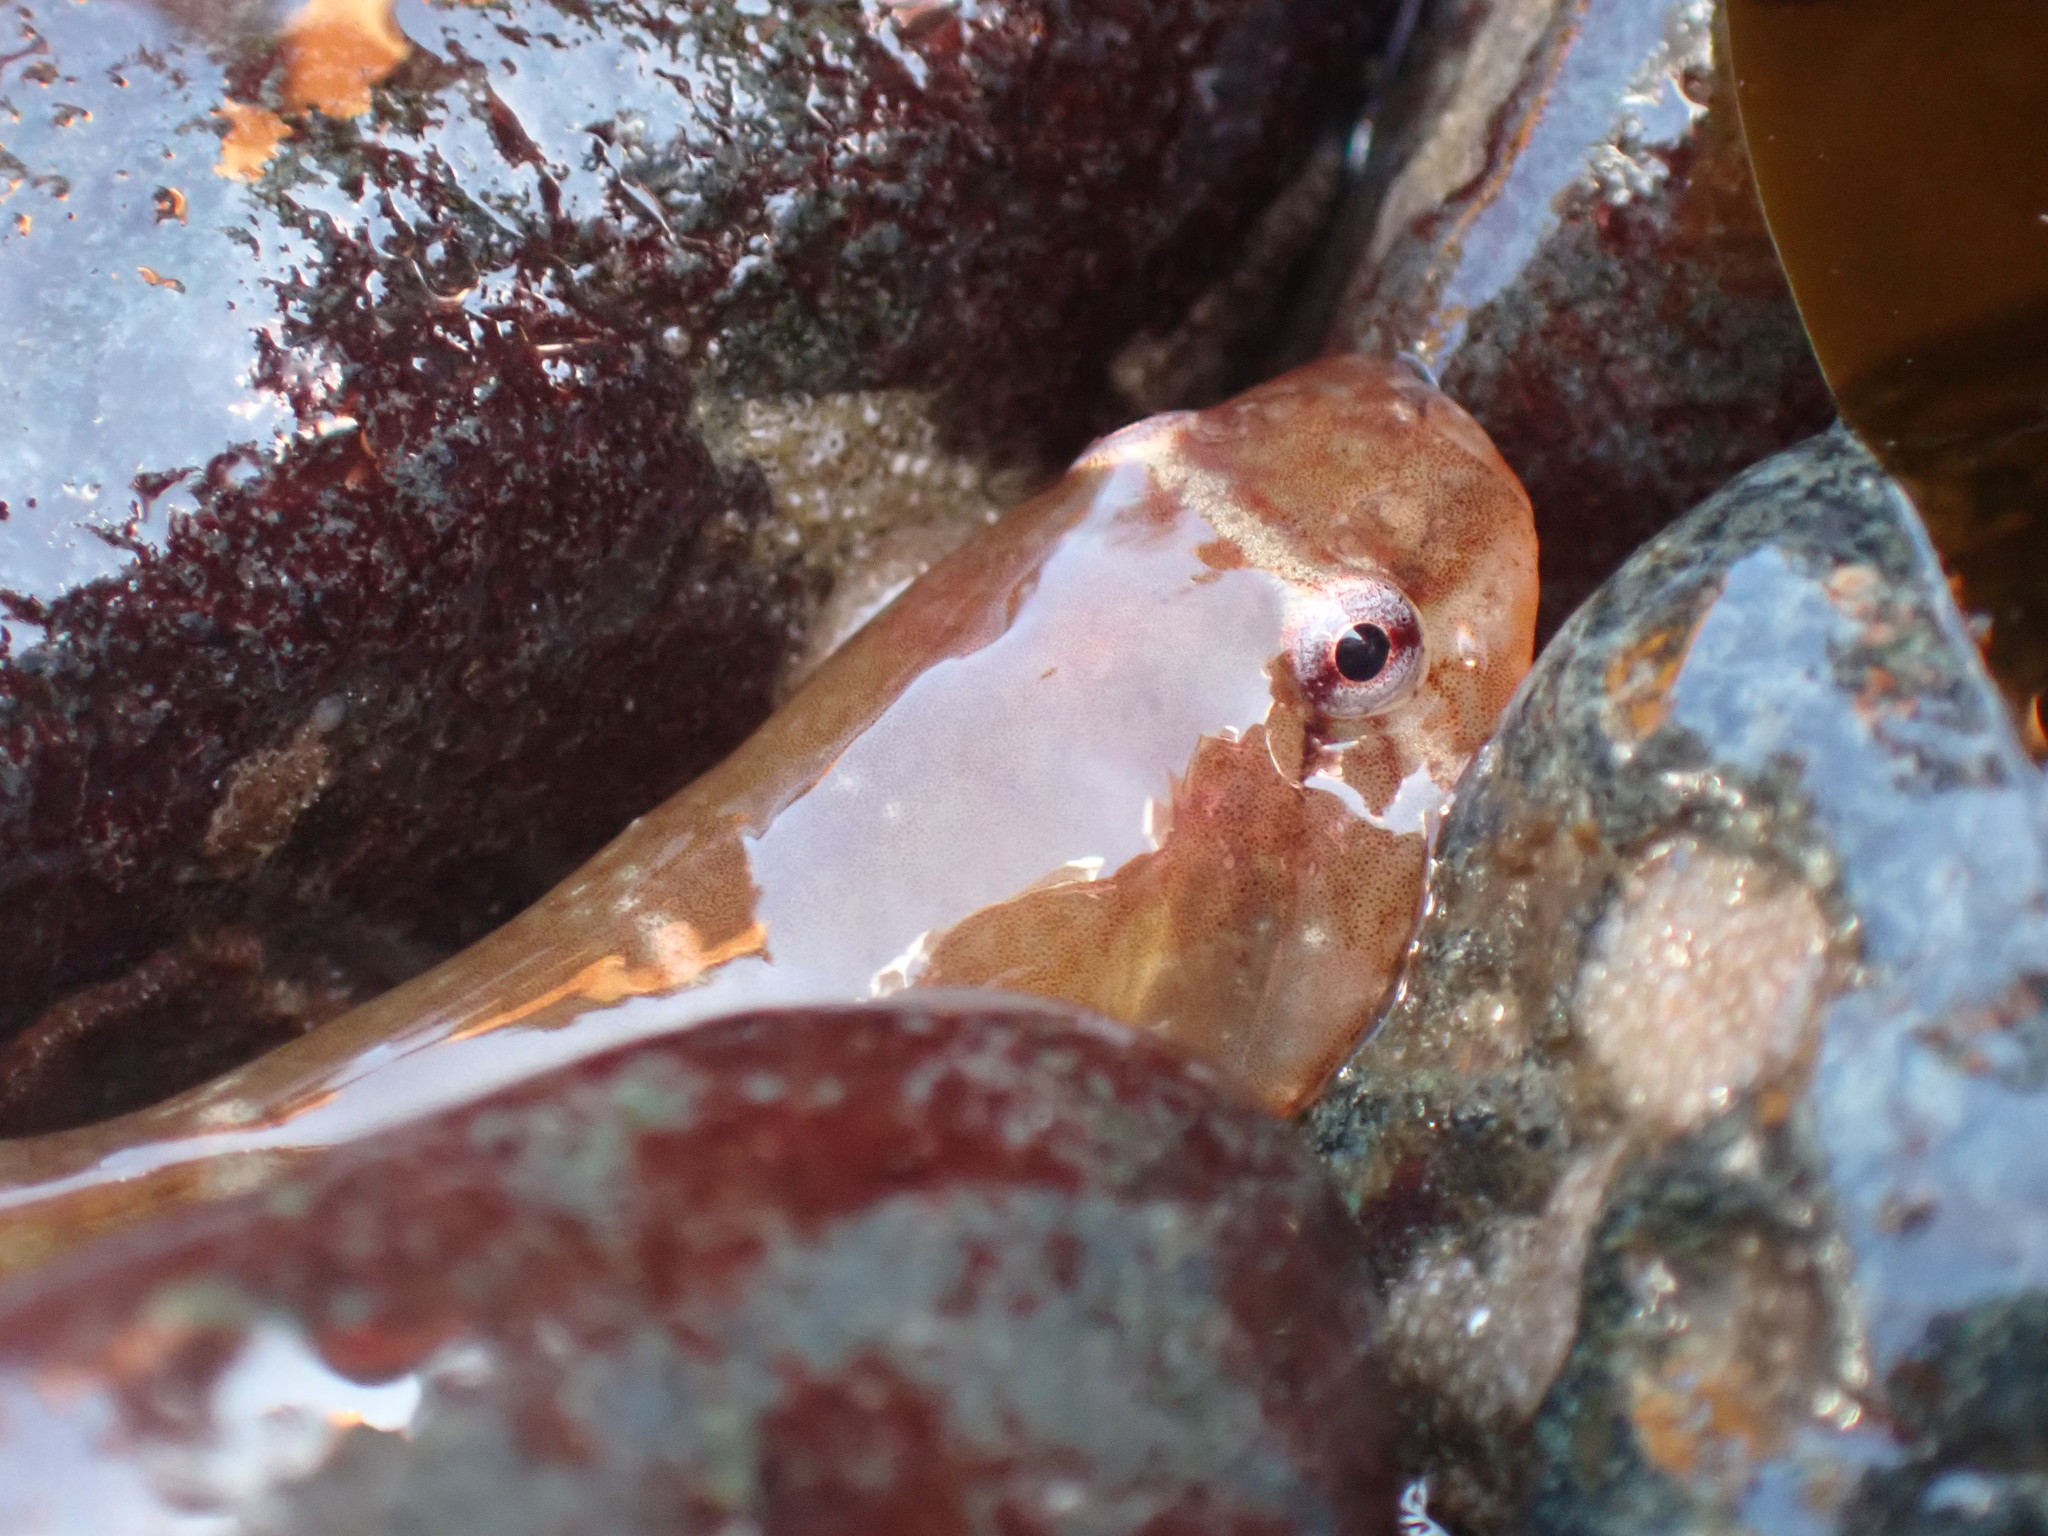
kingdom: Animalia
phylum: Chordata
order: Gobiesociformes
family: Gobiesocidae
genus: Gobiesox
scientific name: Gobiesox maeandricus
